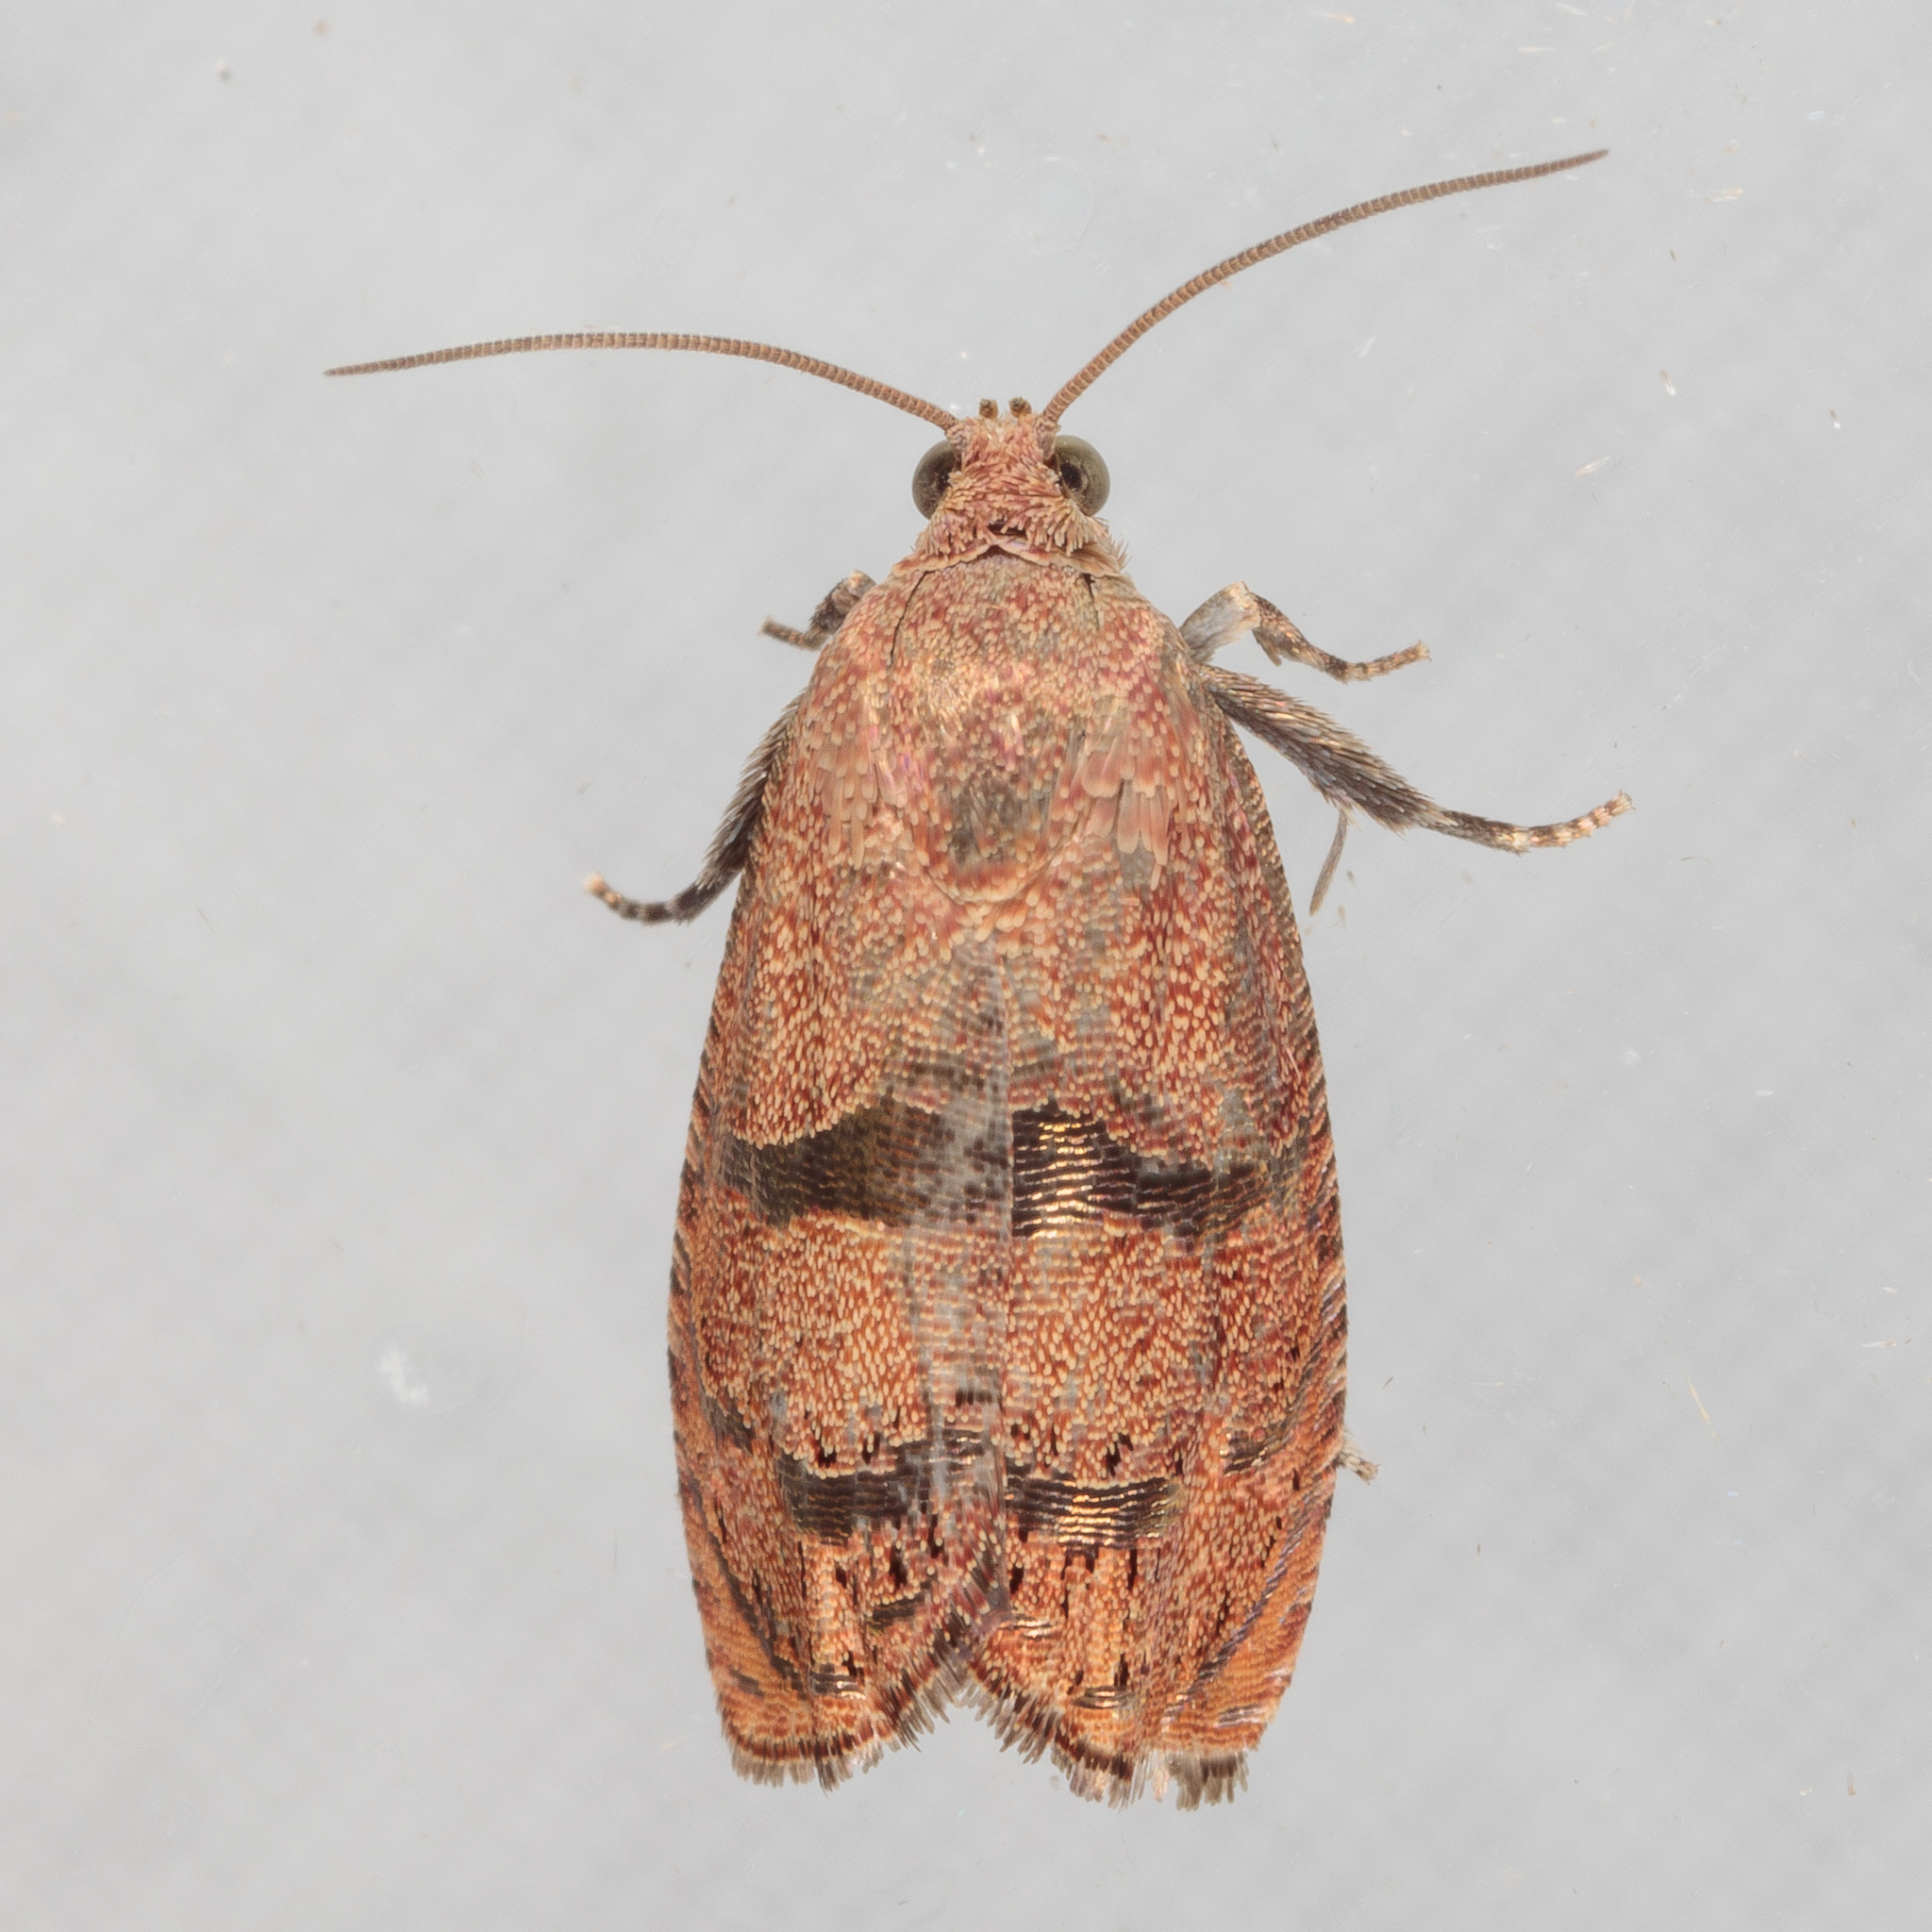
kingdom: Animalia
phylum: Arthropoda
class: Insecta
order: Lepidoptera
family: Tortricidae
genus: Cydia
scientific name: Cydia latiferreana
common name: Filbertworm moth
